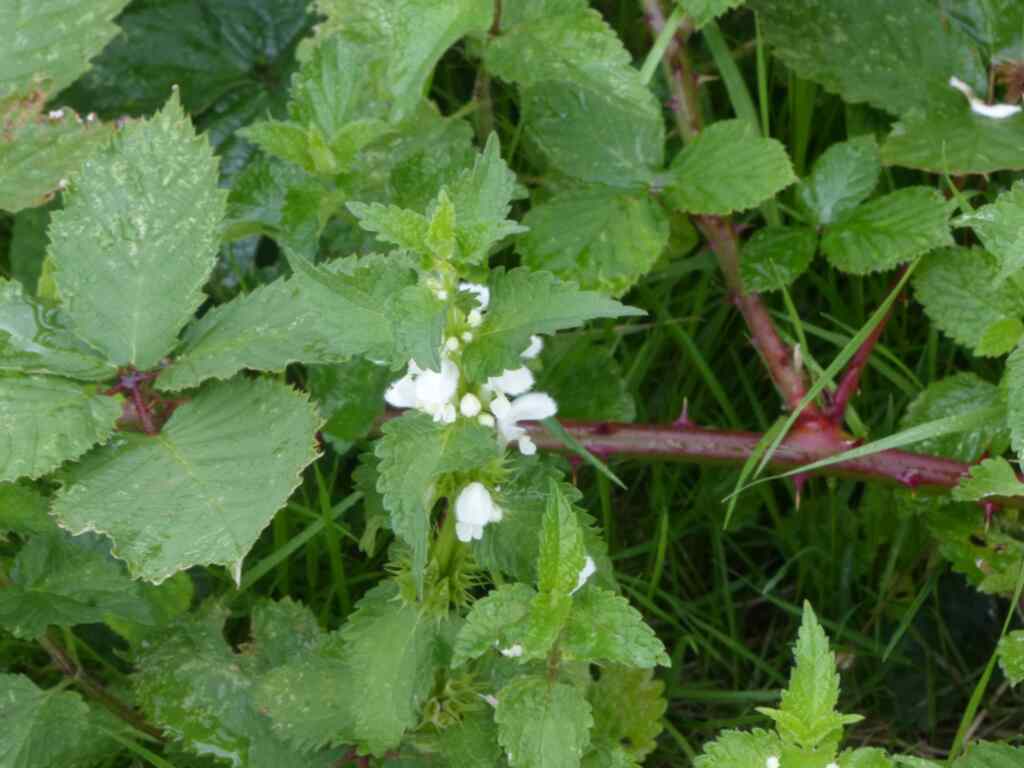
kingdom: Plantae
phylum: Tracheophyta
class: Magnoliopsida
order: Lamiales
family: Lamiaceae
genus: Lamium
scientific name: Lamium album
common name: White dead-nettle
